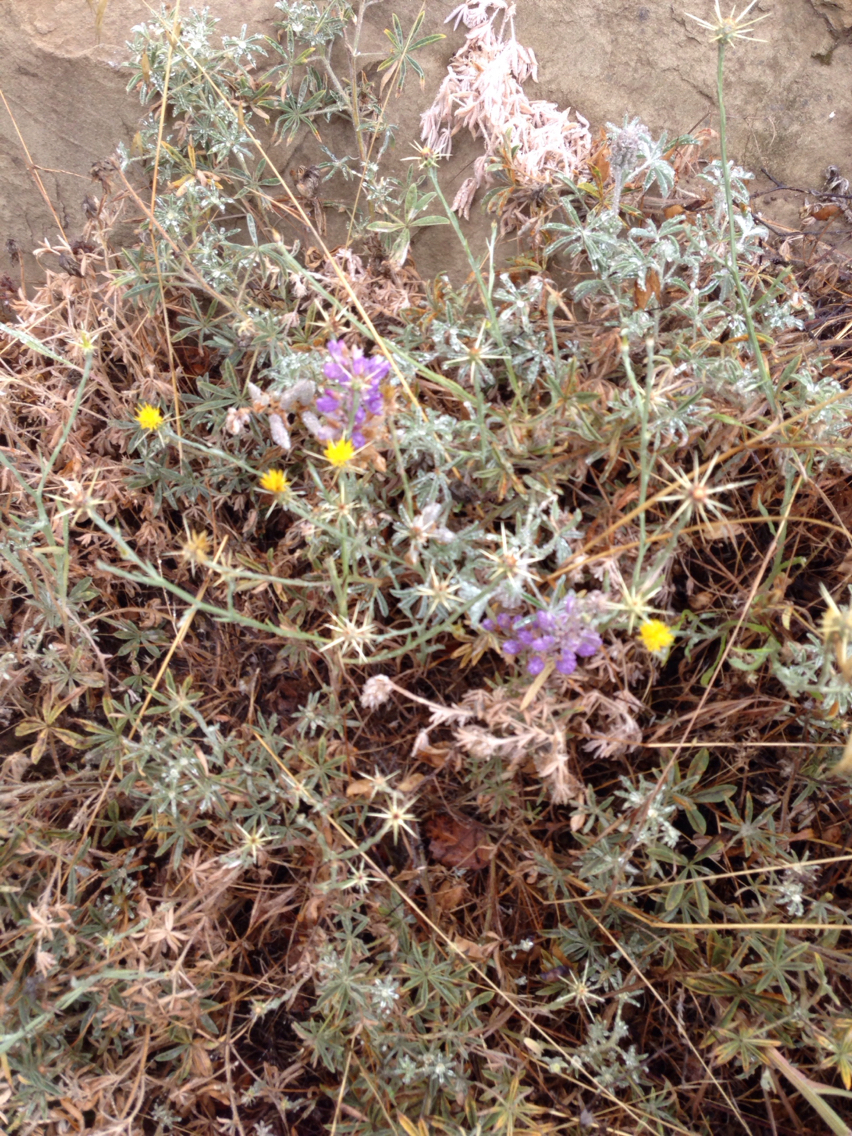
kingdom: Plantae
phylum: Tracheophyta
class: Magnoliopsida
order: Fabales
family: Fabaceae
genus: Lupinus
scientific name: Lupinus formosus
